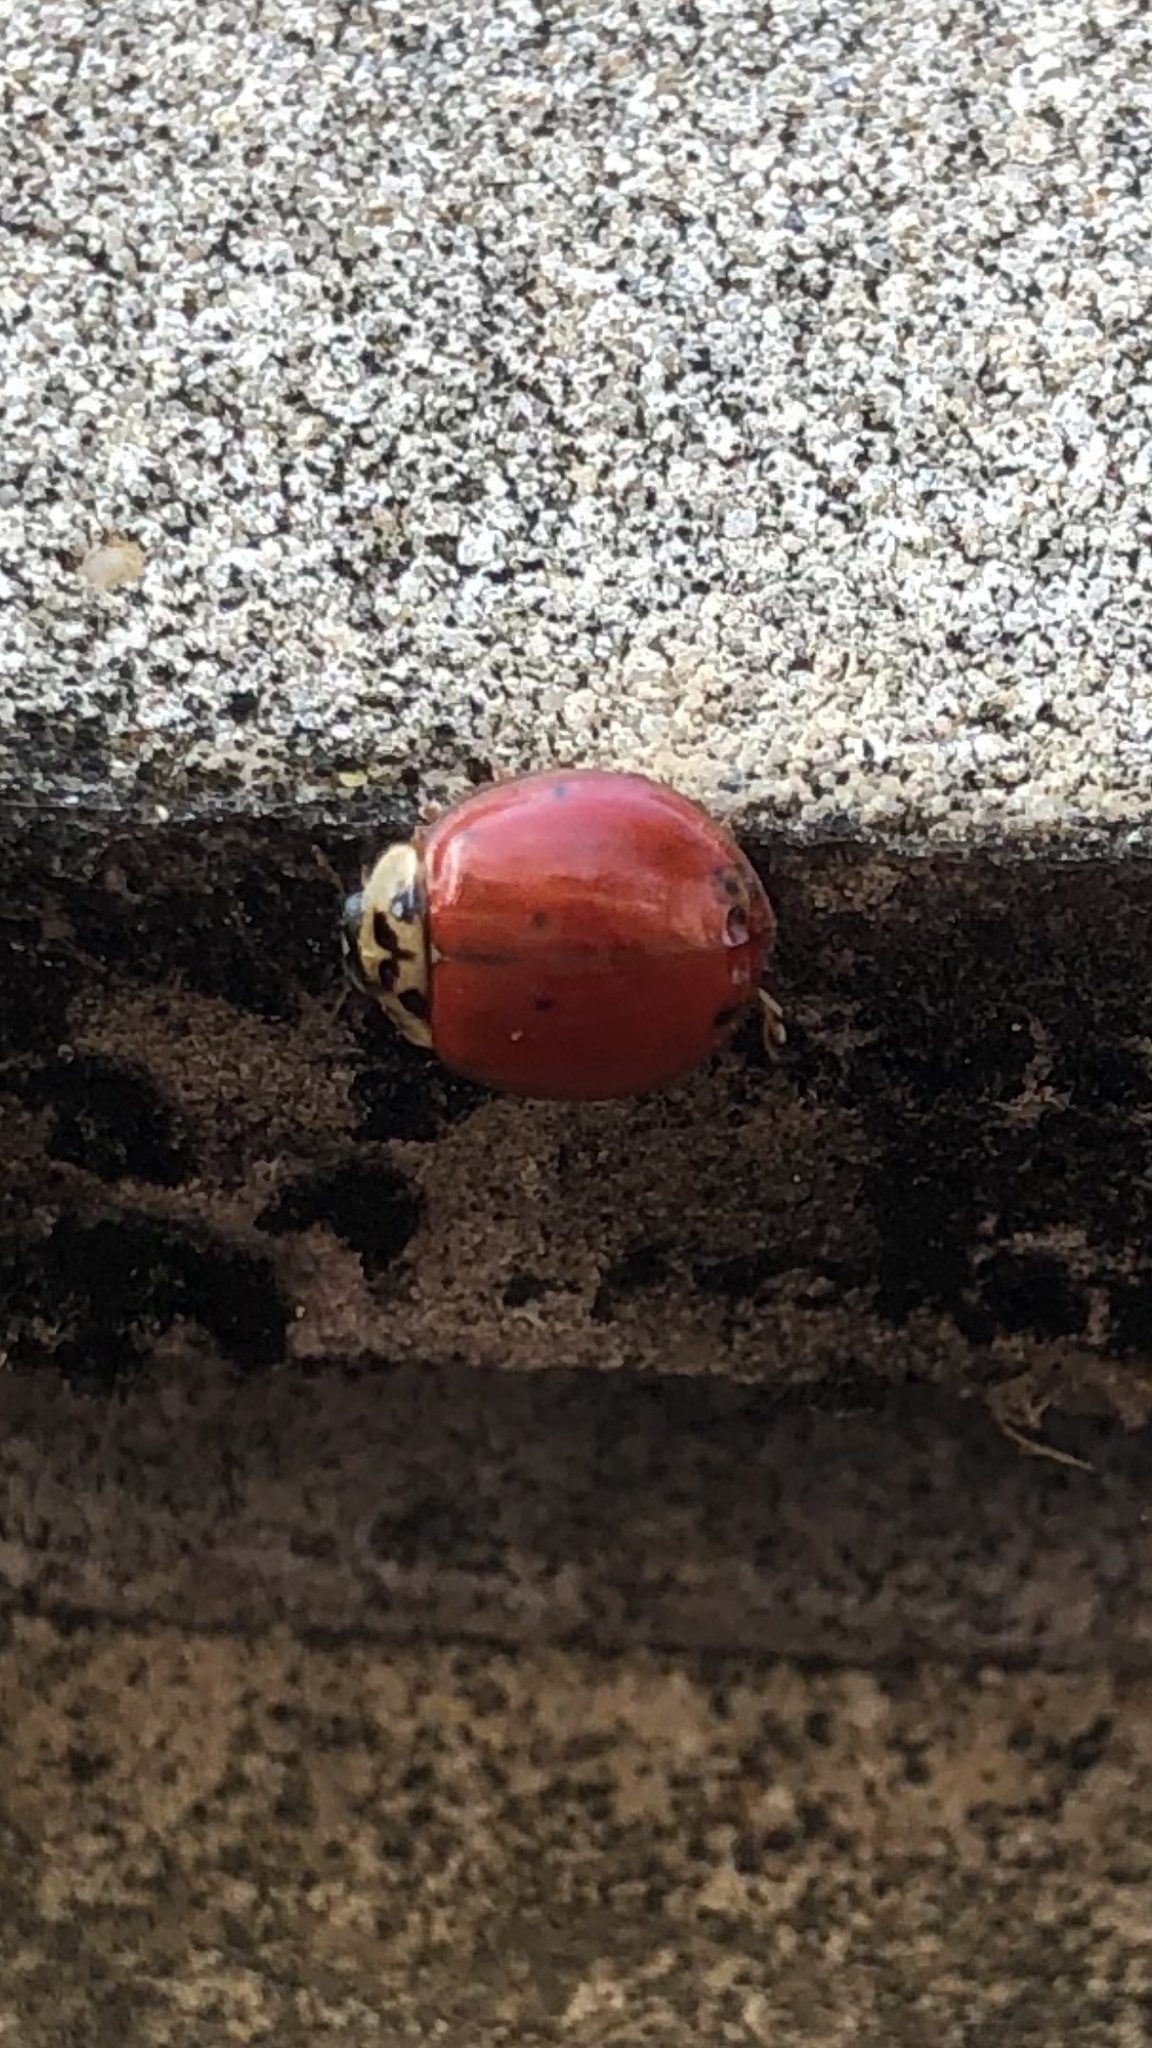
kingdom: Animalia
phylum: Arthropoda
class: Insecta
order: Coleoptera
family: Coccinellidae
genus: Harmonia
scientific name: Harmonia axyridis
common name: Harlequin ladybird
